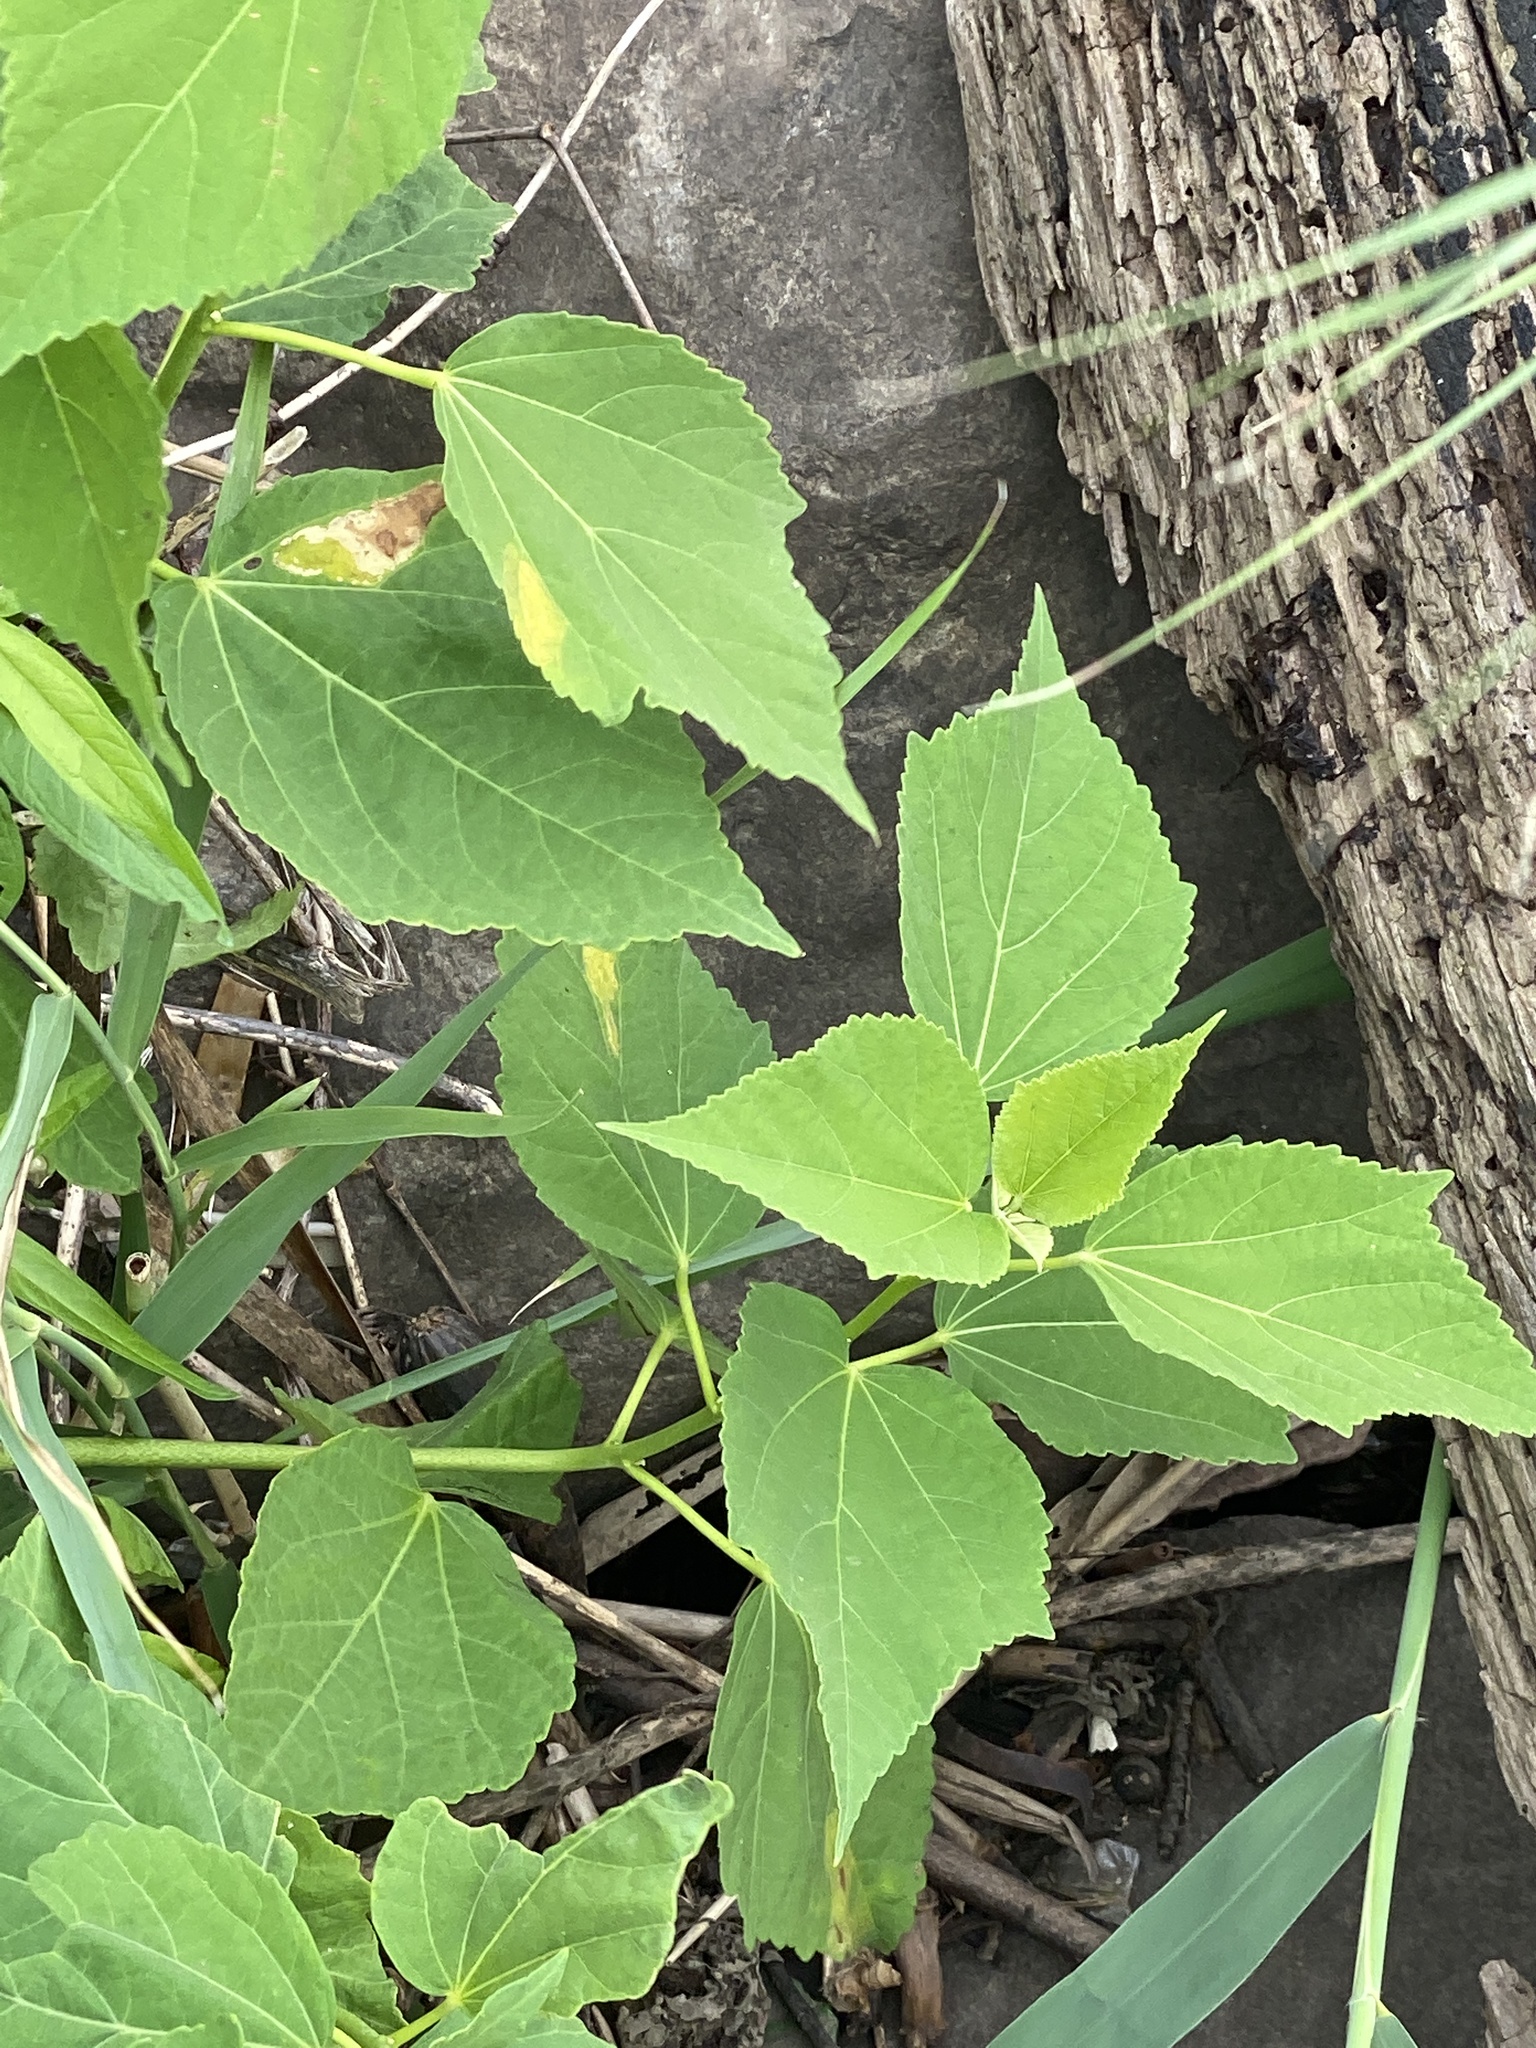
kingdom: Plantae
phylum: Tracheophyta
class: Magnoliopsida
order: Malvales
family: Malvaceae
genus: Hibiscus
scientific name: Hibiscus moscheutos
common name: Common rose-mallow
